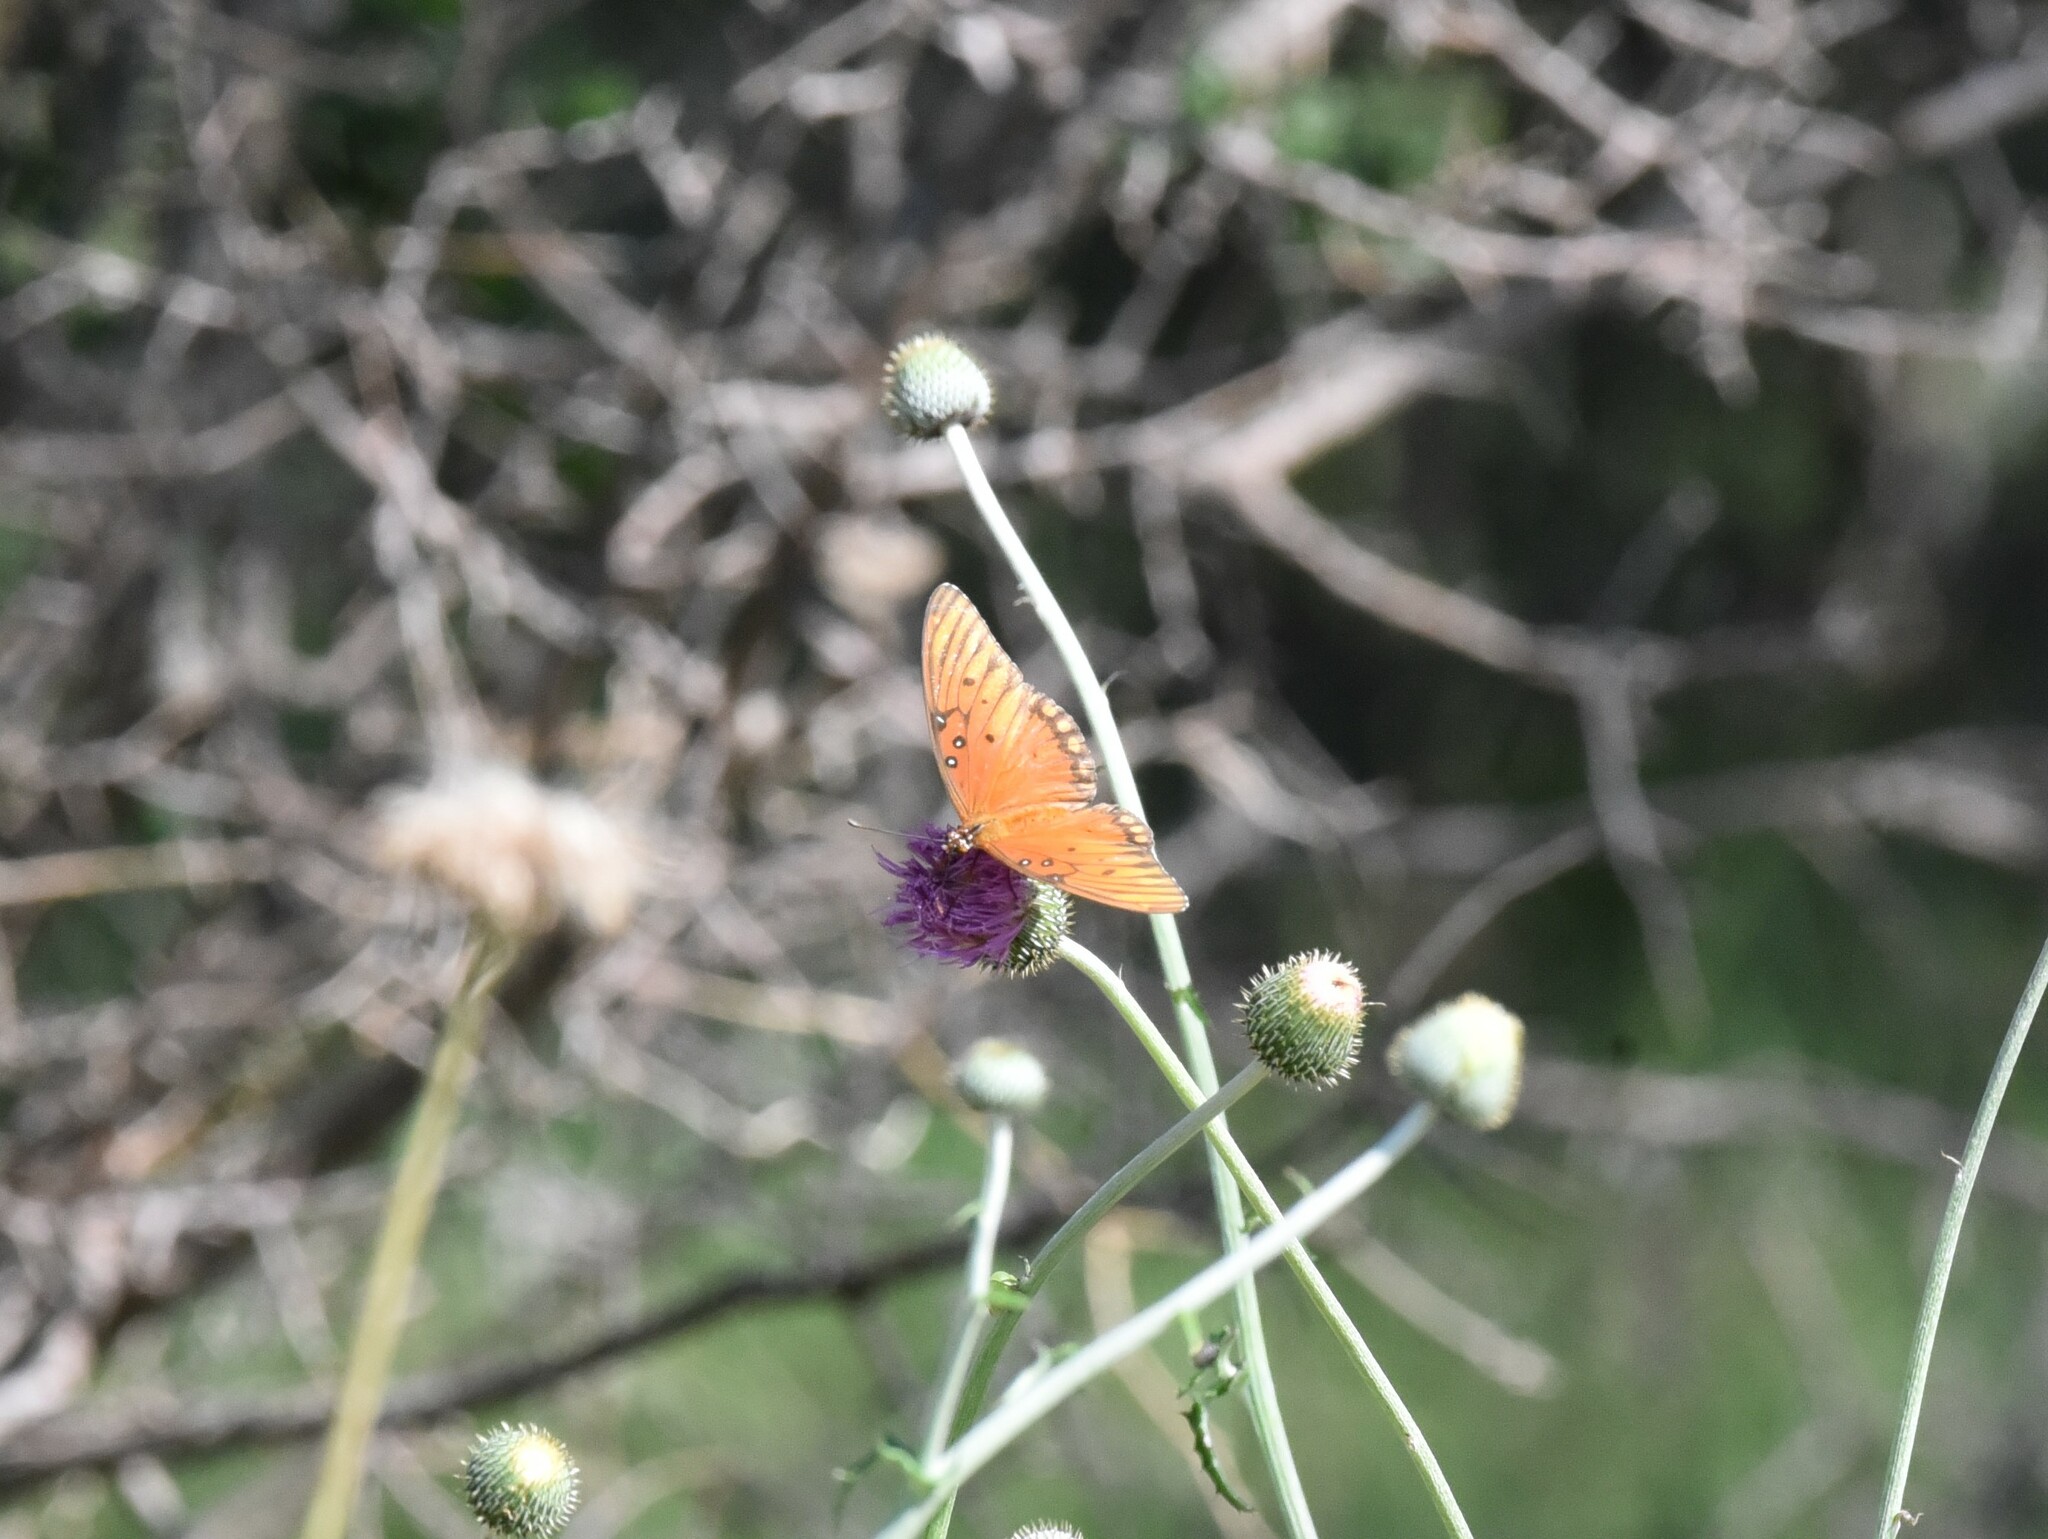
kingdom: Animalia
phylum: Arthropoda
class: Insecta
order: Lepidoptera
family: Nymphalidae
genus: Dione
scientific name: Dione vanillae
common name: Gulf fritillary
